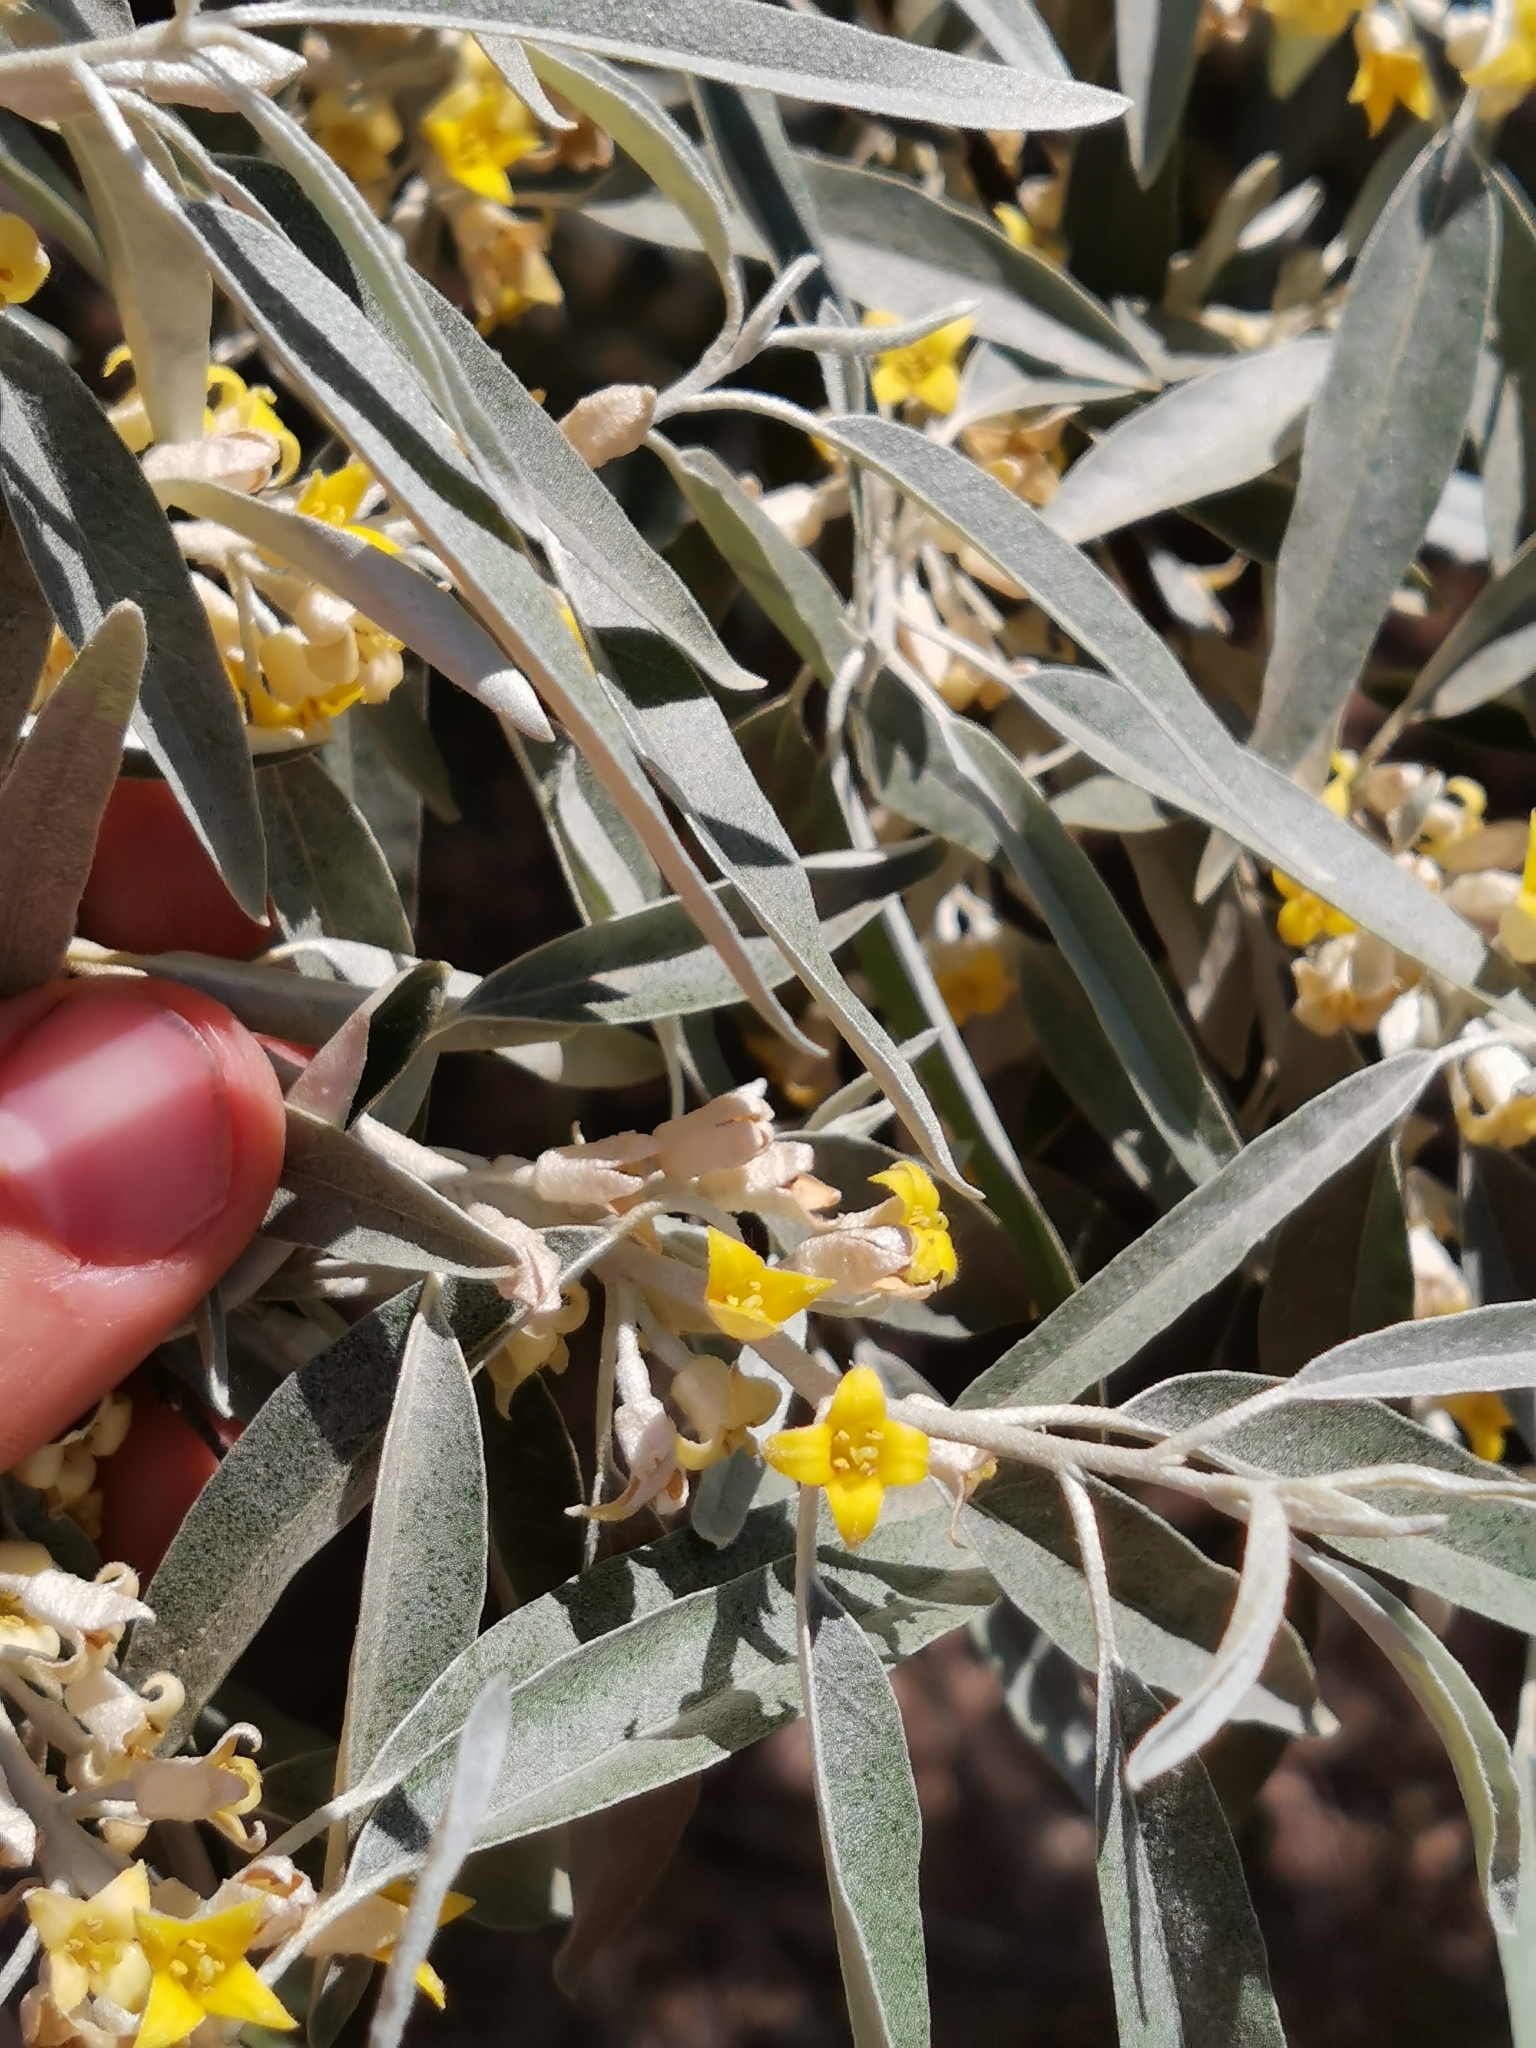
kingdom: Plantae
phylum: Tracheophyta
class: Magnoliopsida
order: Rosales
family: Elaeagnaceae
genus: Elaeagnus
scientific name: Elaeagnus angustifolia
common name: Russian olive
